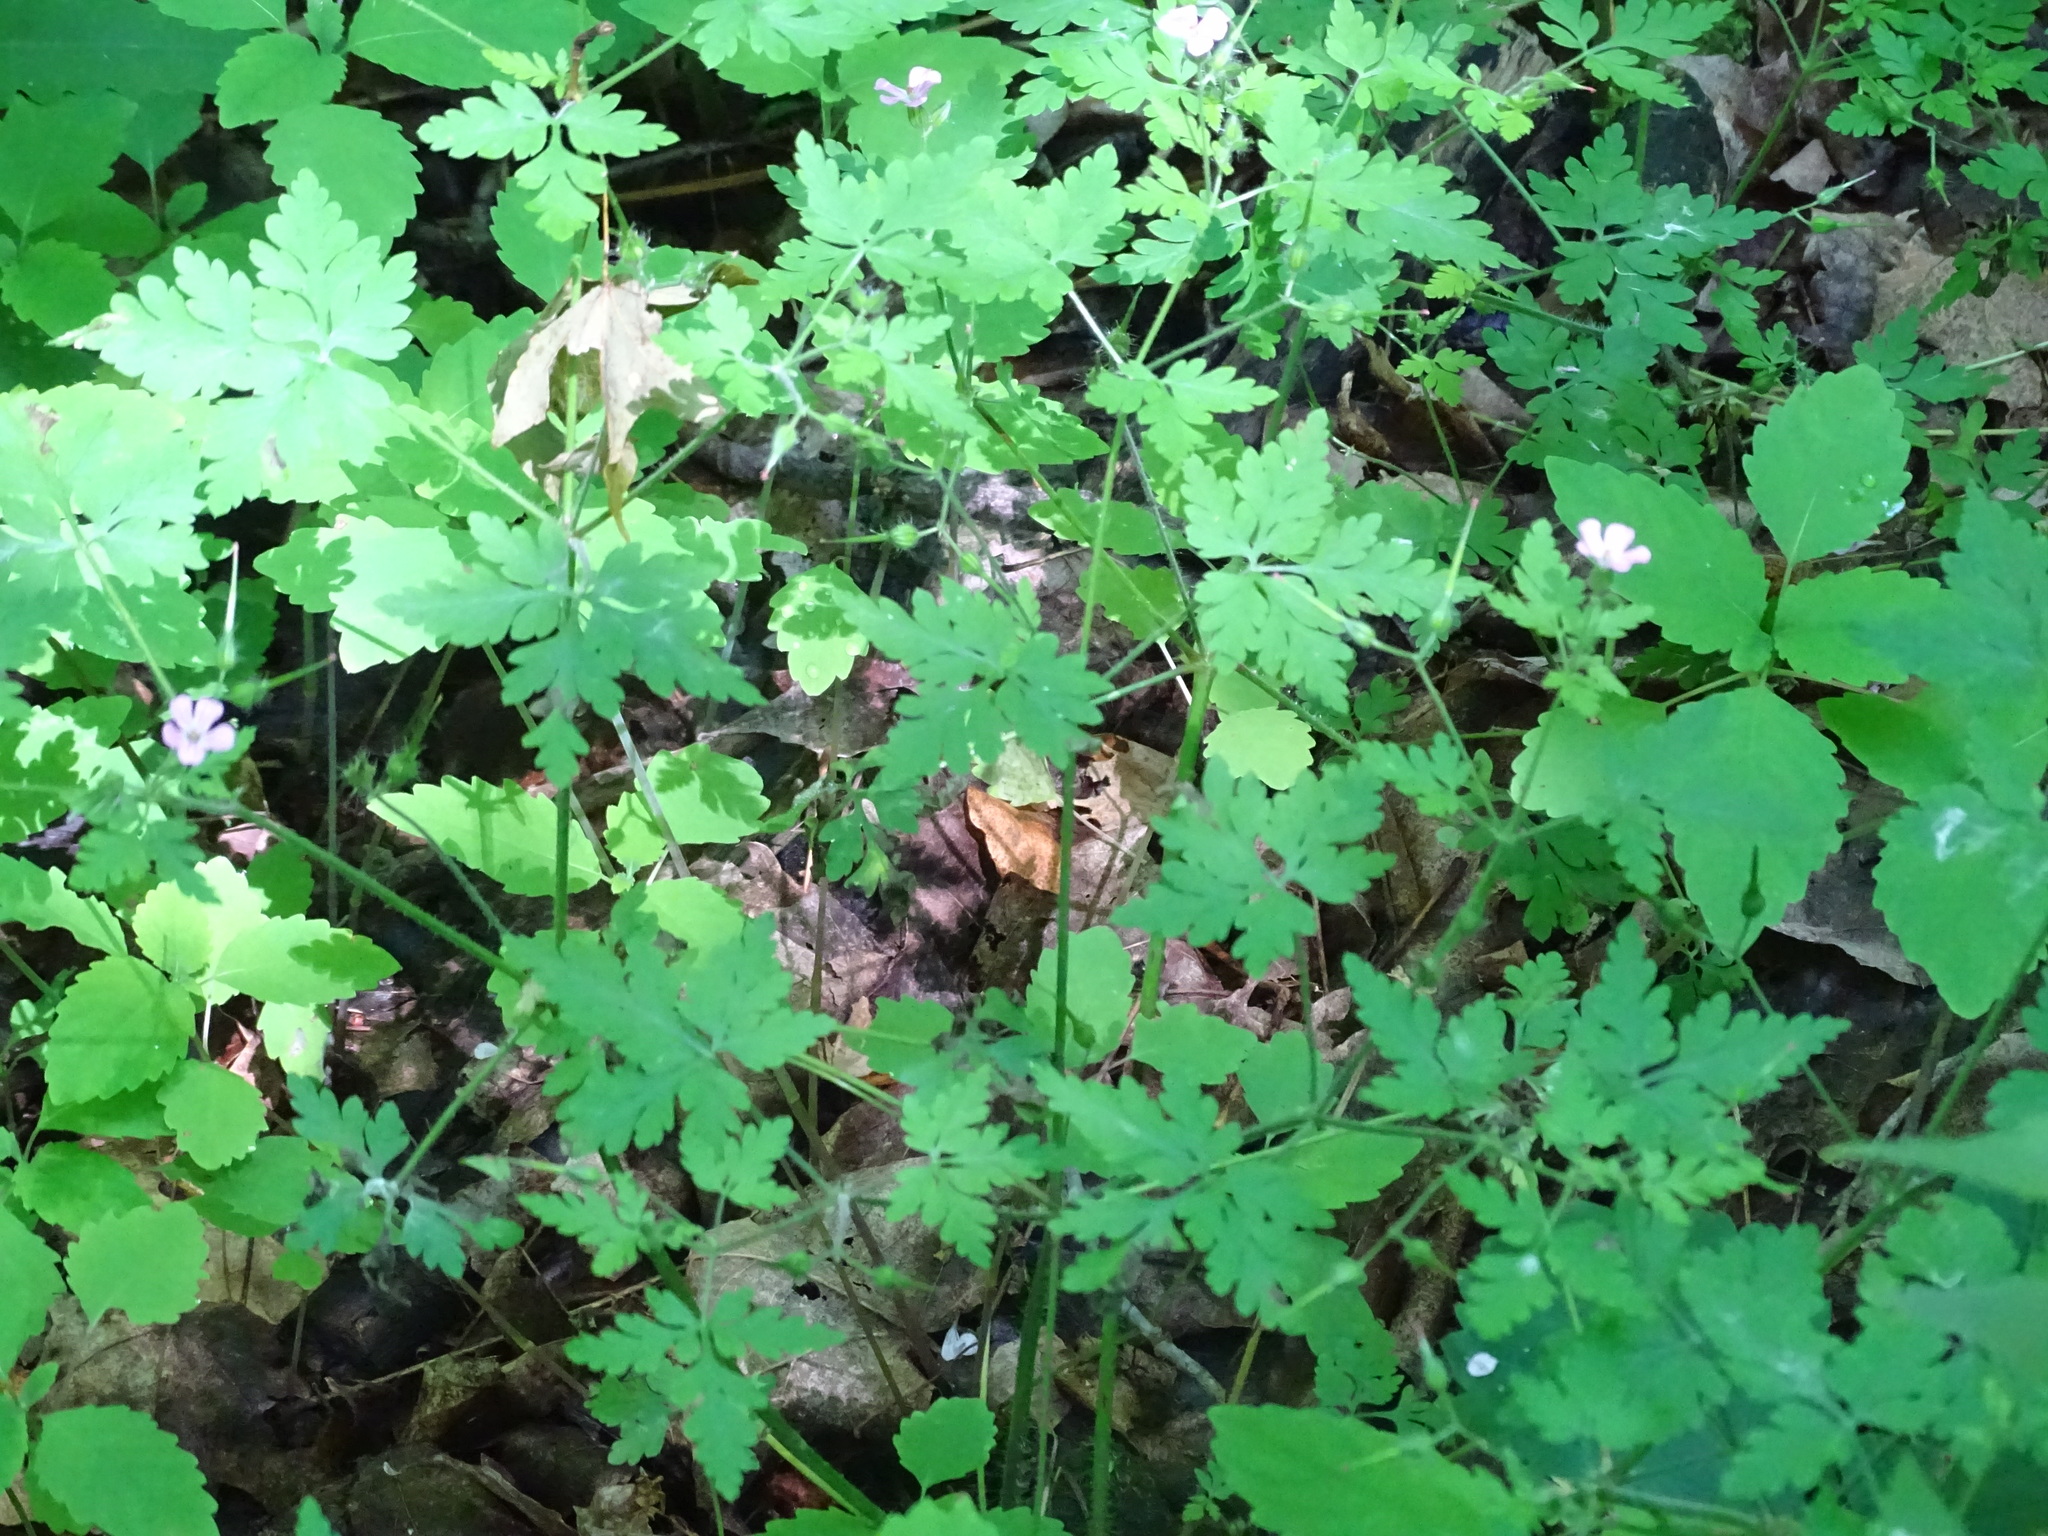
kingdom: Plantae
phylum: Tracheophyta
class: Magnoliopsida
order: Geraniales
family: Geraniaceae
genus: Geranium
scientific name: Geranium robertianum
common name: Herb-robert
